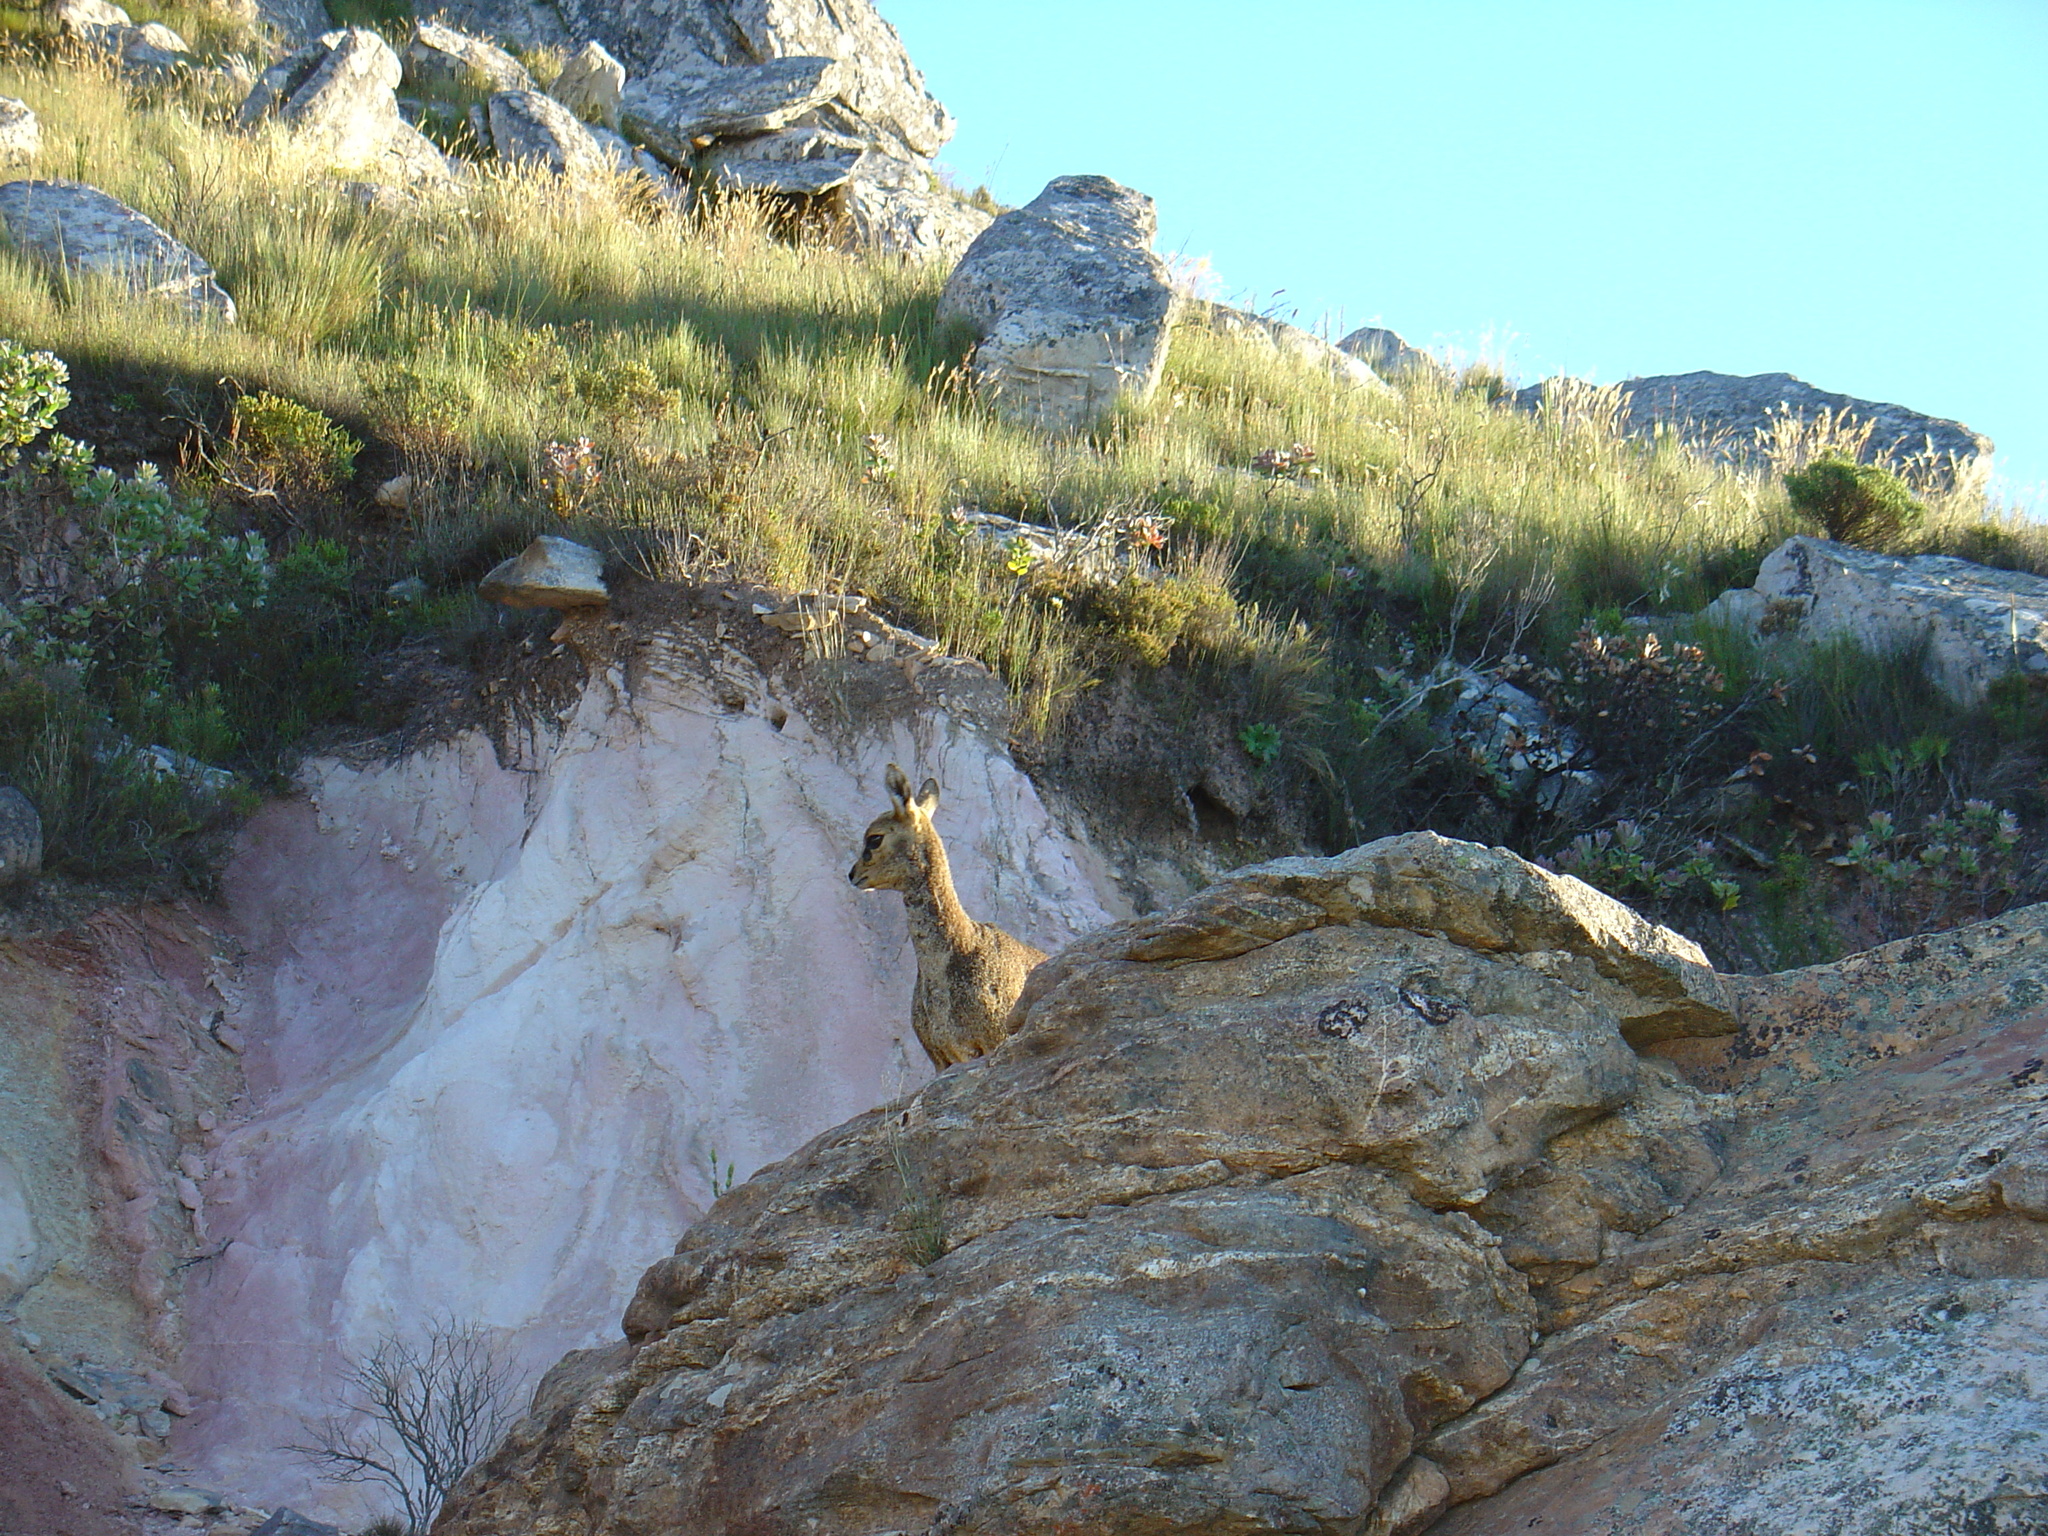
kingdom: Animalia
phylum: Chordata
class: Mammalia
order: Artiodactyla
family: Bovidae
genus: Oreotragus
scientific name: Oreotragus oreotragus
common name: Klipspringer
